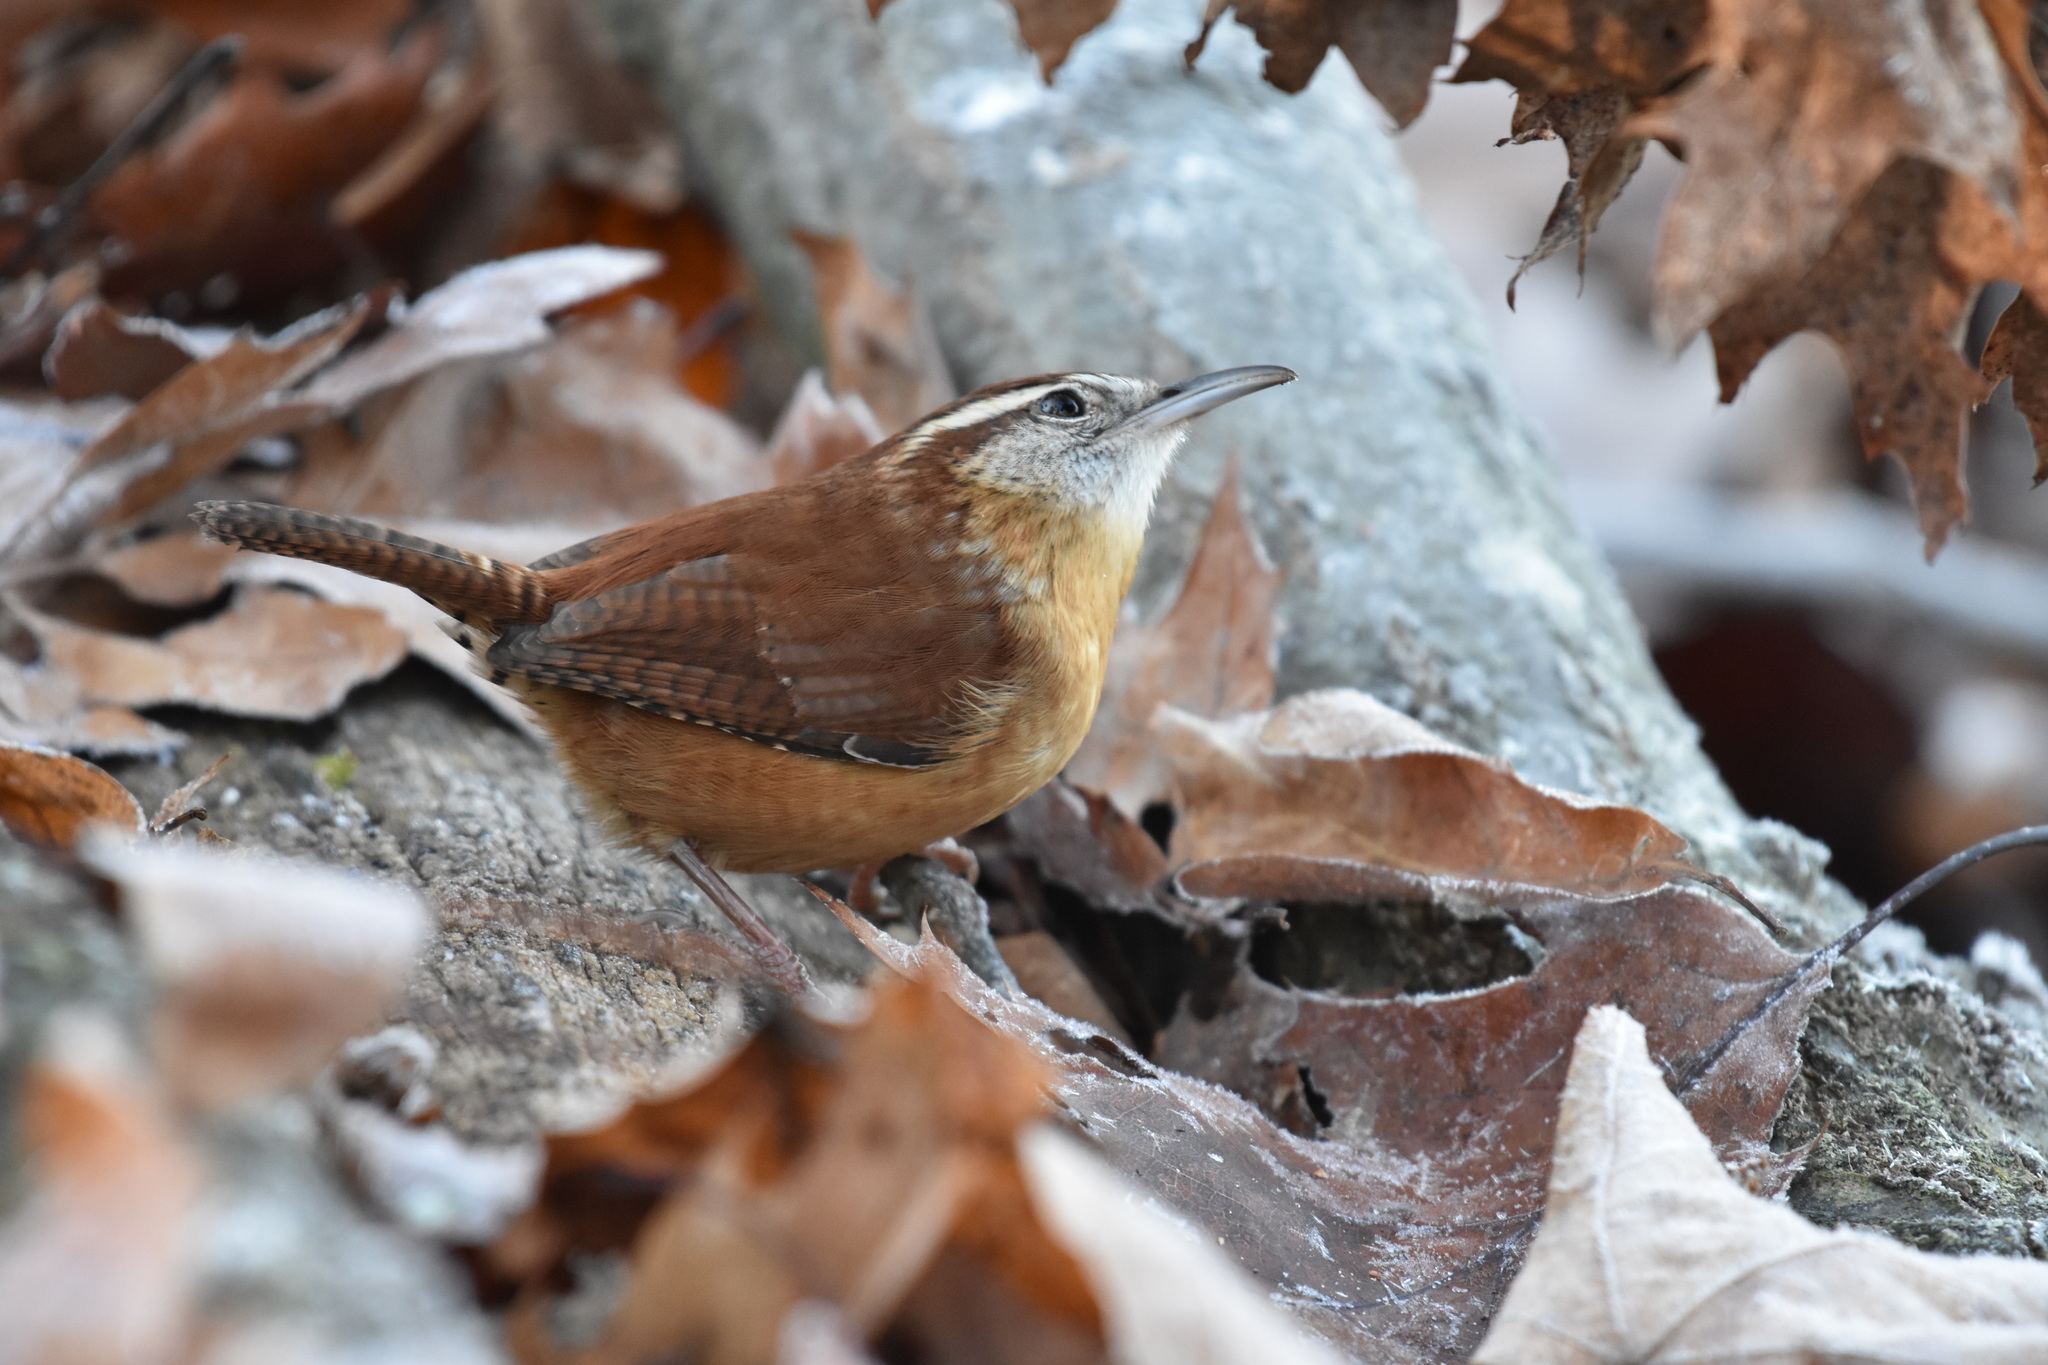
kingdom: Animalia
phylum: Chordata
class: Aves
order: Passeriformes
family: Troglodytidae
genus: Thryothorus
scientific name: Thryothorus ludovicianus
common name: Carolina wren
